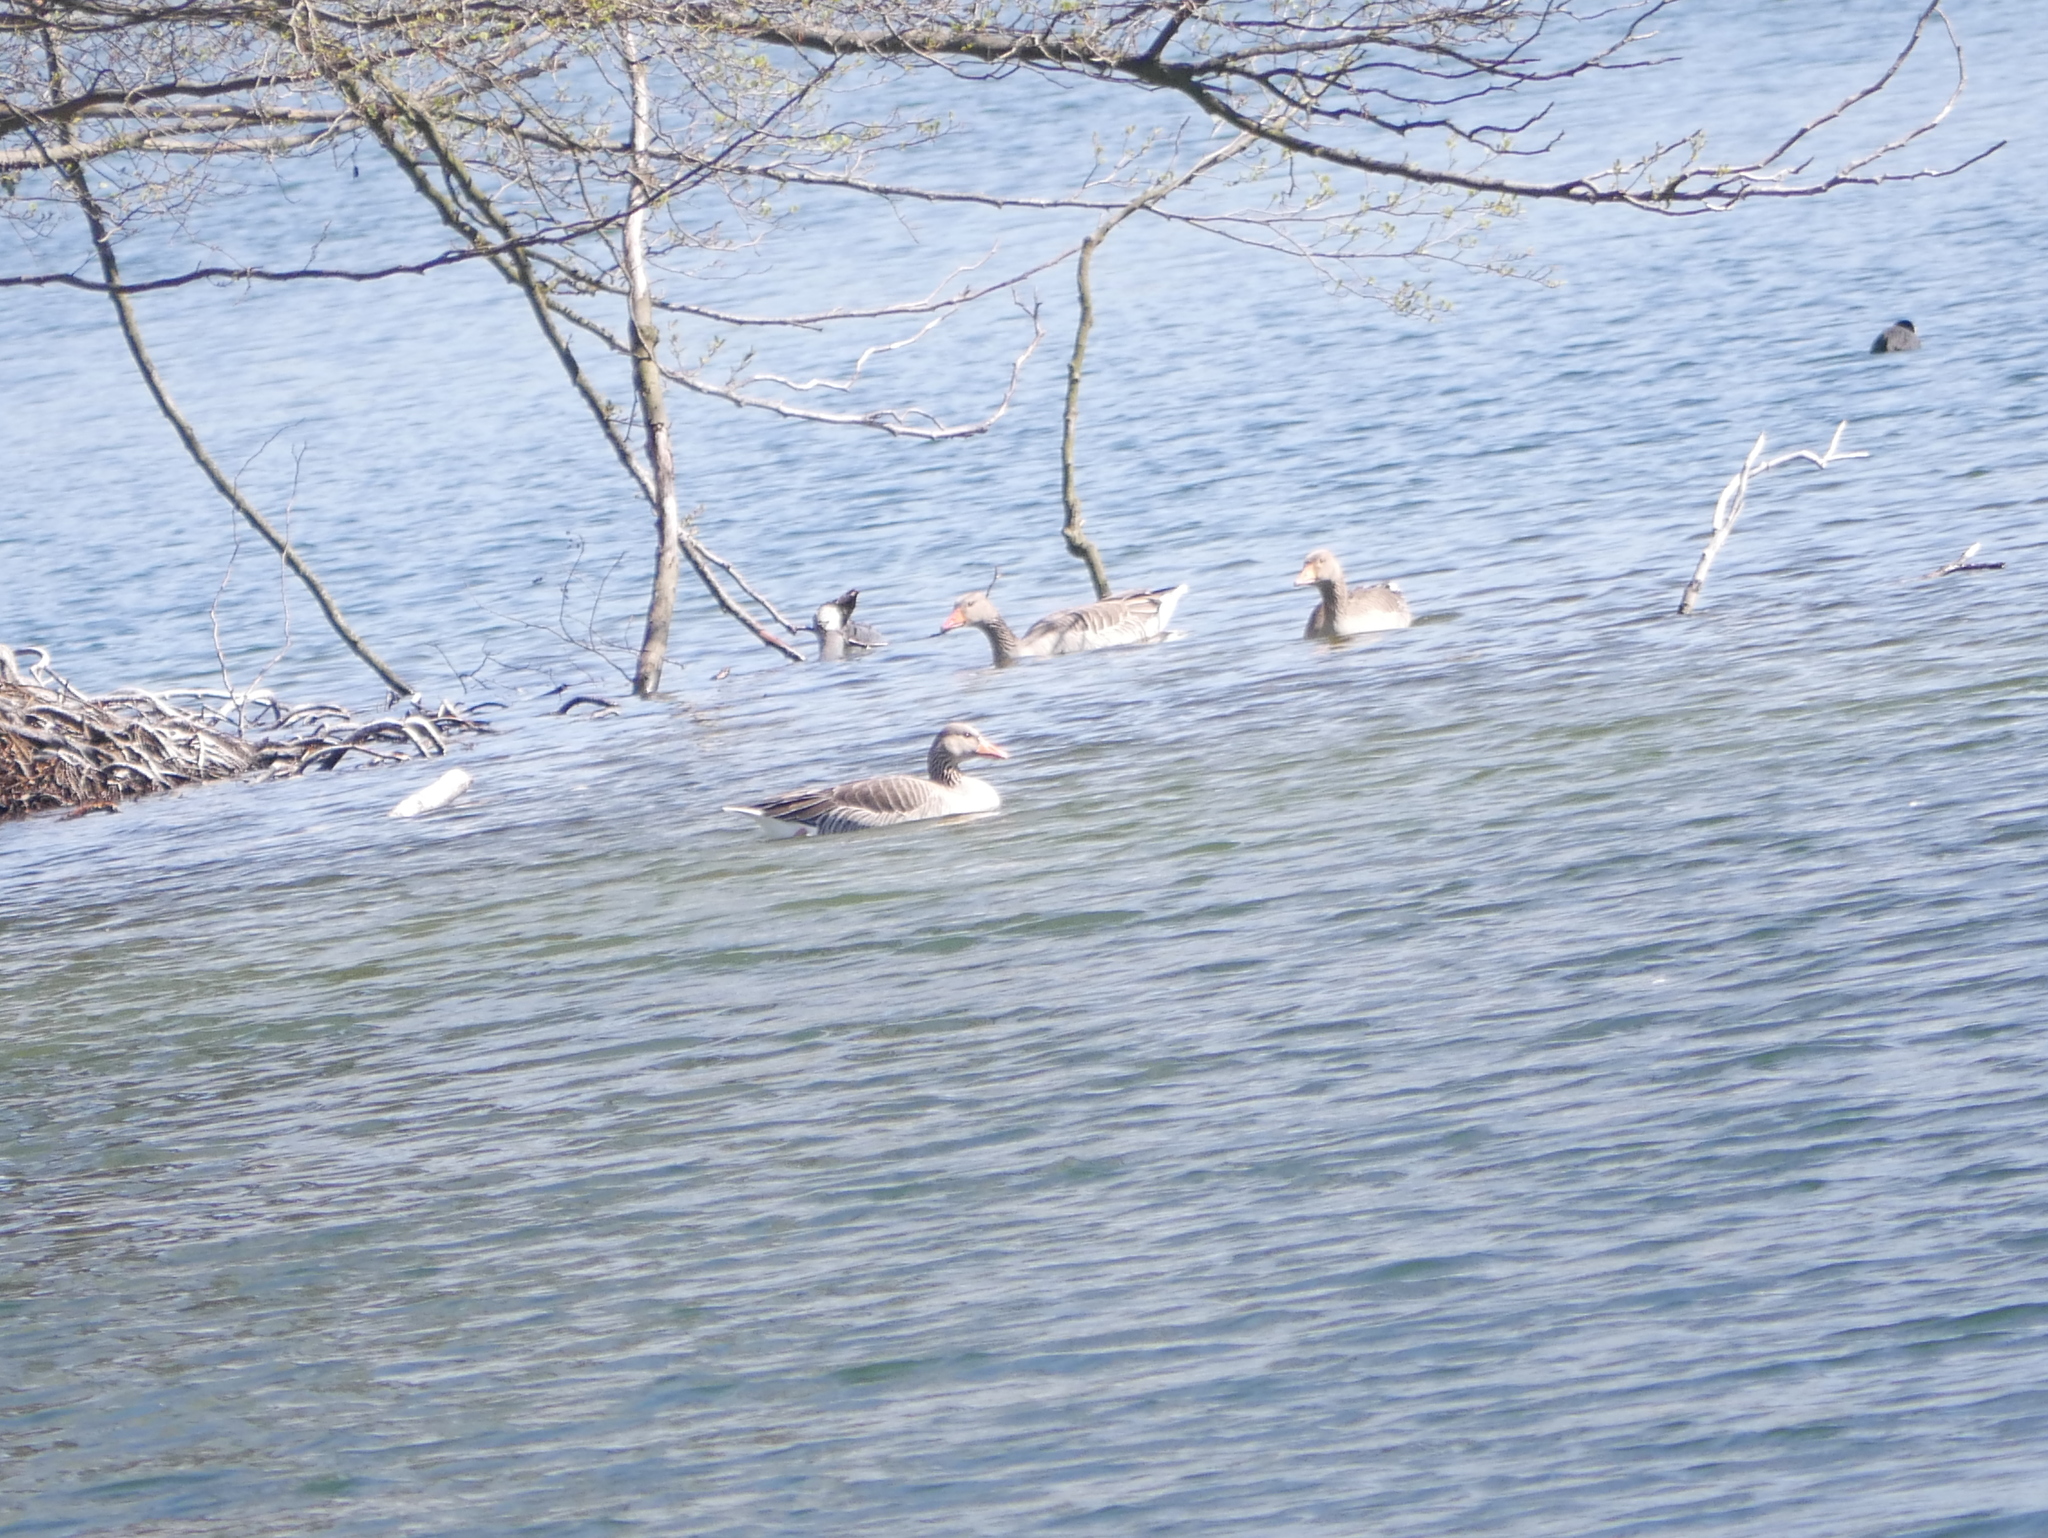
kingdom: Animalia
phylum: Chordata
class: Aves
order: Anseriformes
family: Anatidae
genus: Anser
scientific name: Anser anser
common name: Greylag goose
